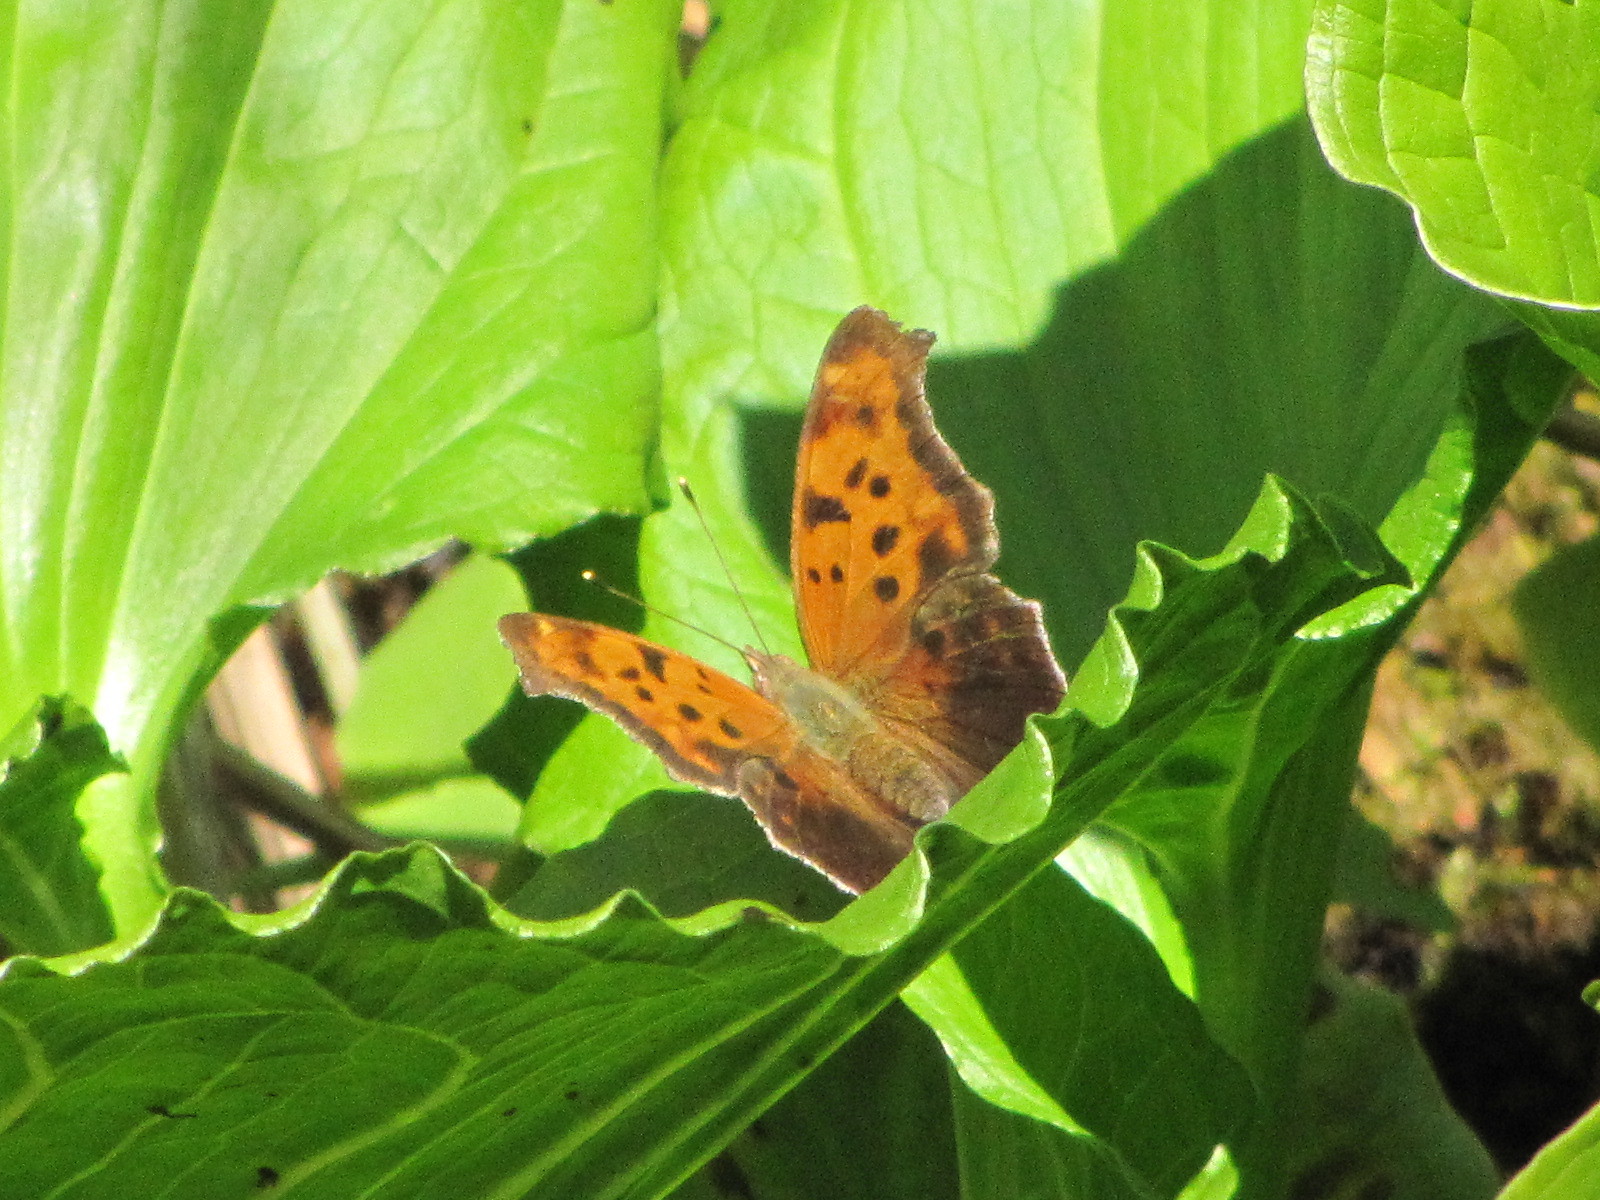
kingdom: Animalia
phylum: Arthropoda
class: Insecta
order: Lepidoptera
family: Nymphalidae
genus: Polygonia
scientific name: Polygonia interrogationis
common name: Question mark
